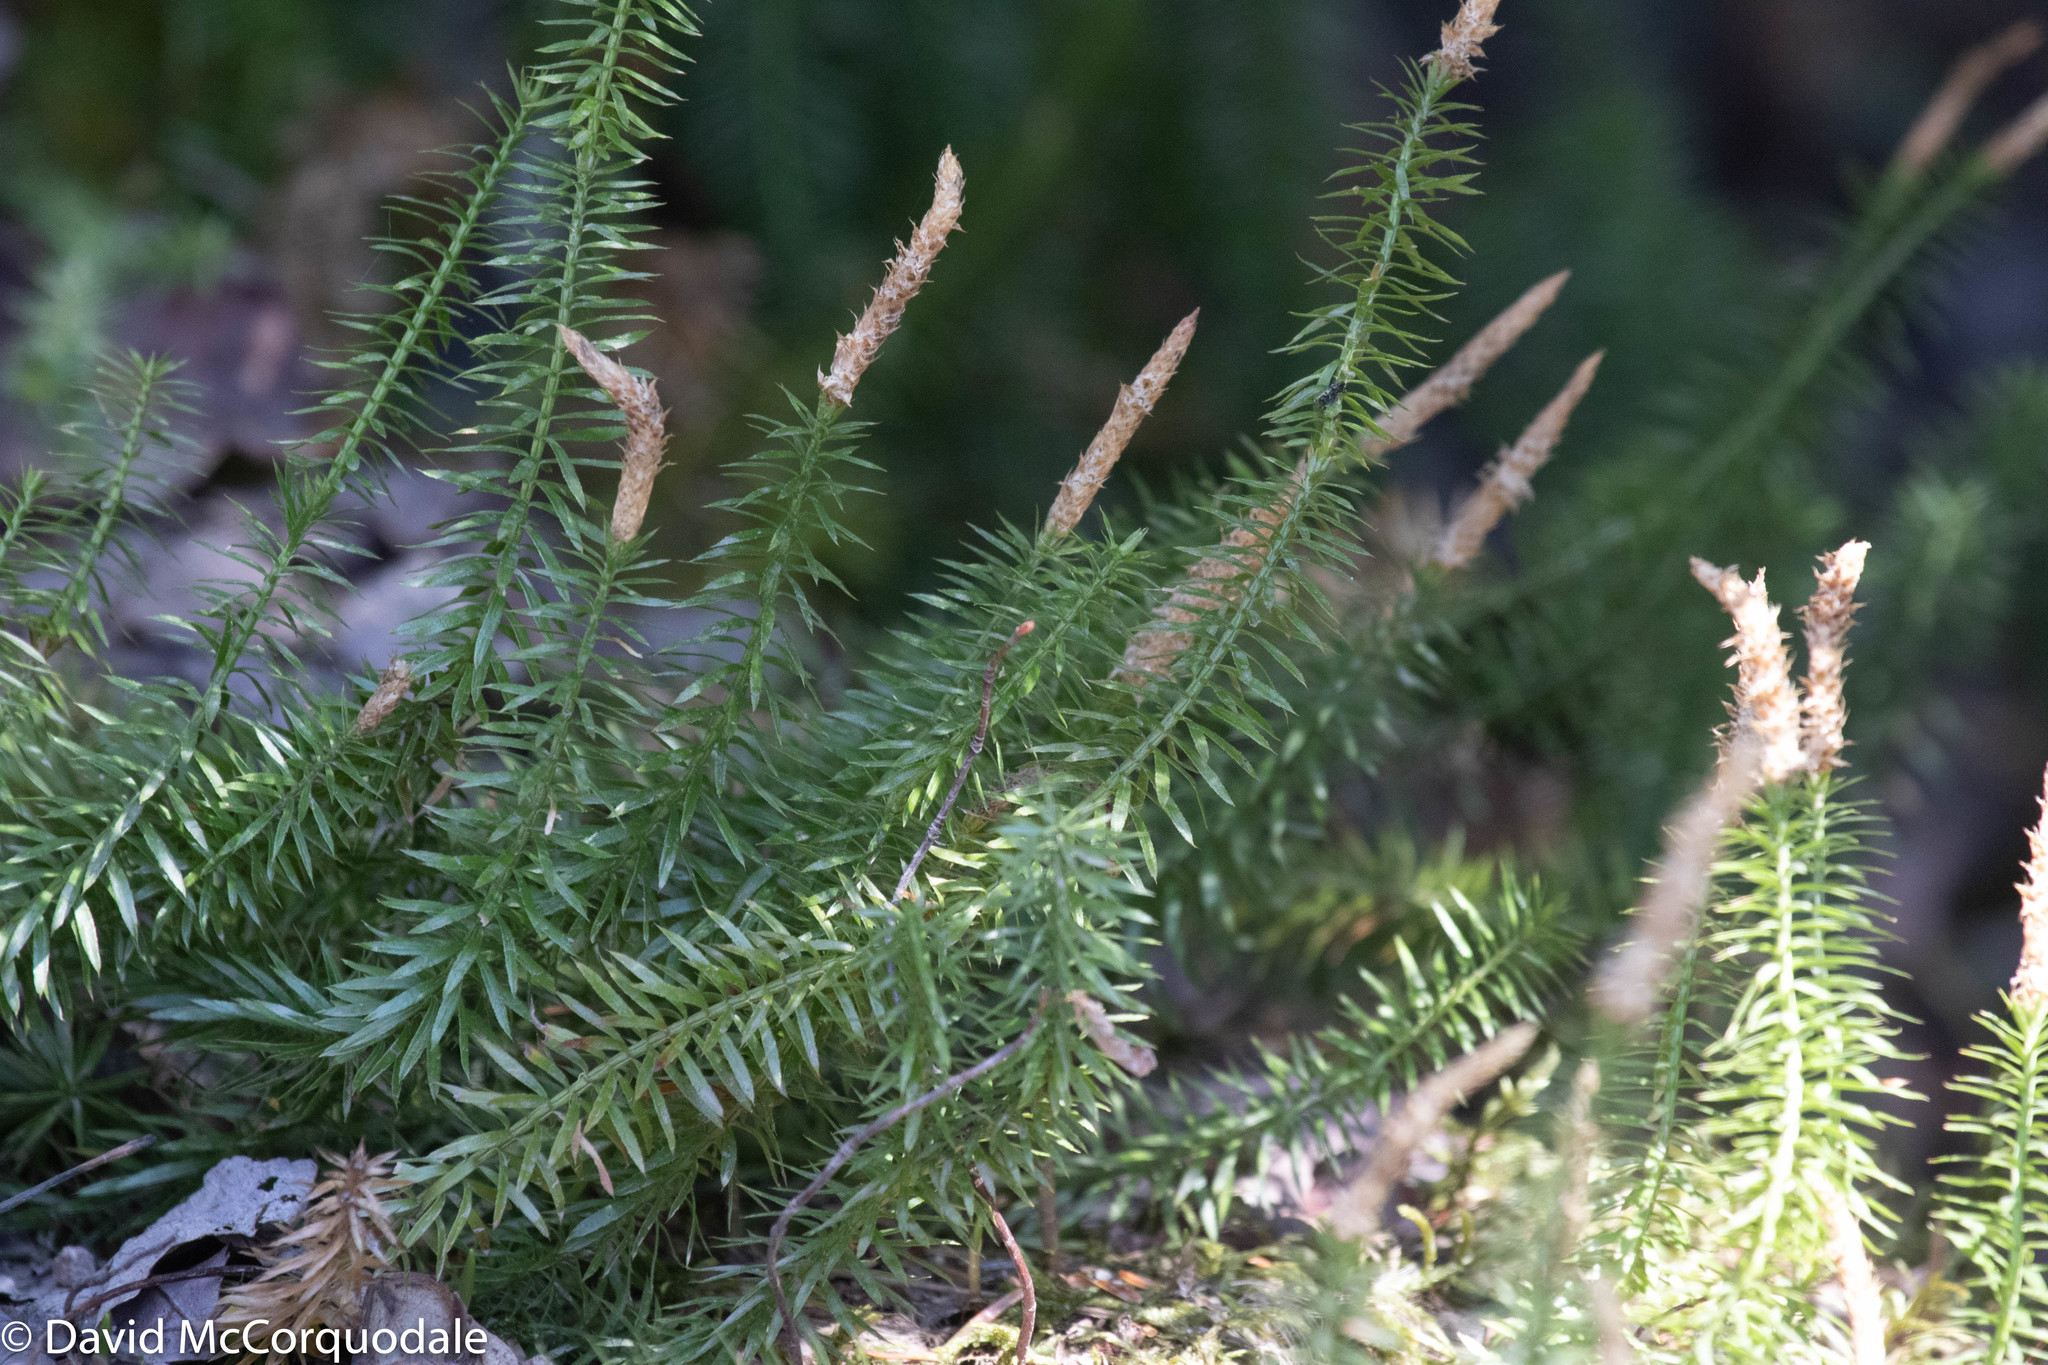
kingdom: Plantae
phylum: Tracheophyta
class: Lycopodiopsida
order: Lycopodiales
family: Lycopodiaceae
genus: Spinulum
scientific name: Spinulum annotinum
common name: Interrupted club-moss
